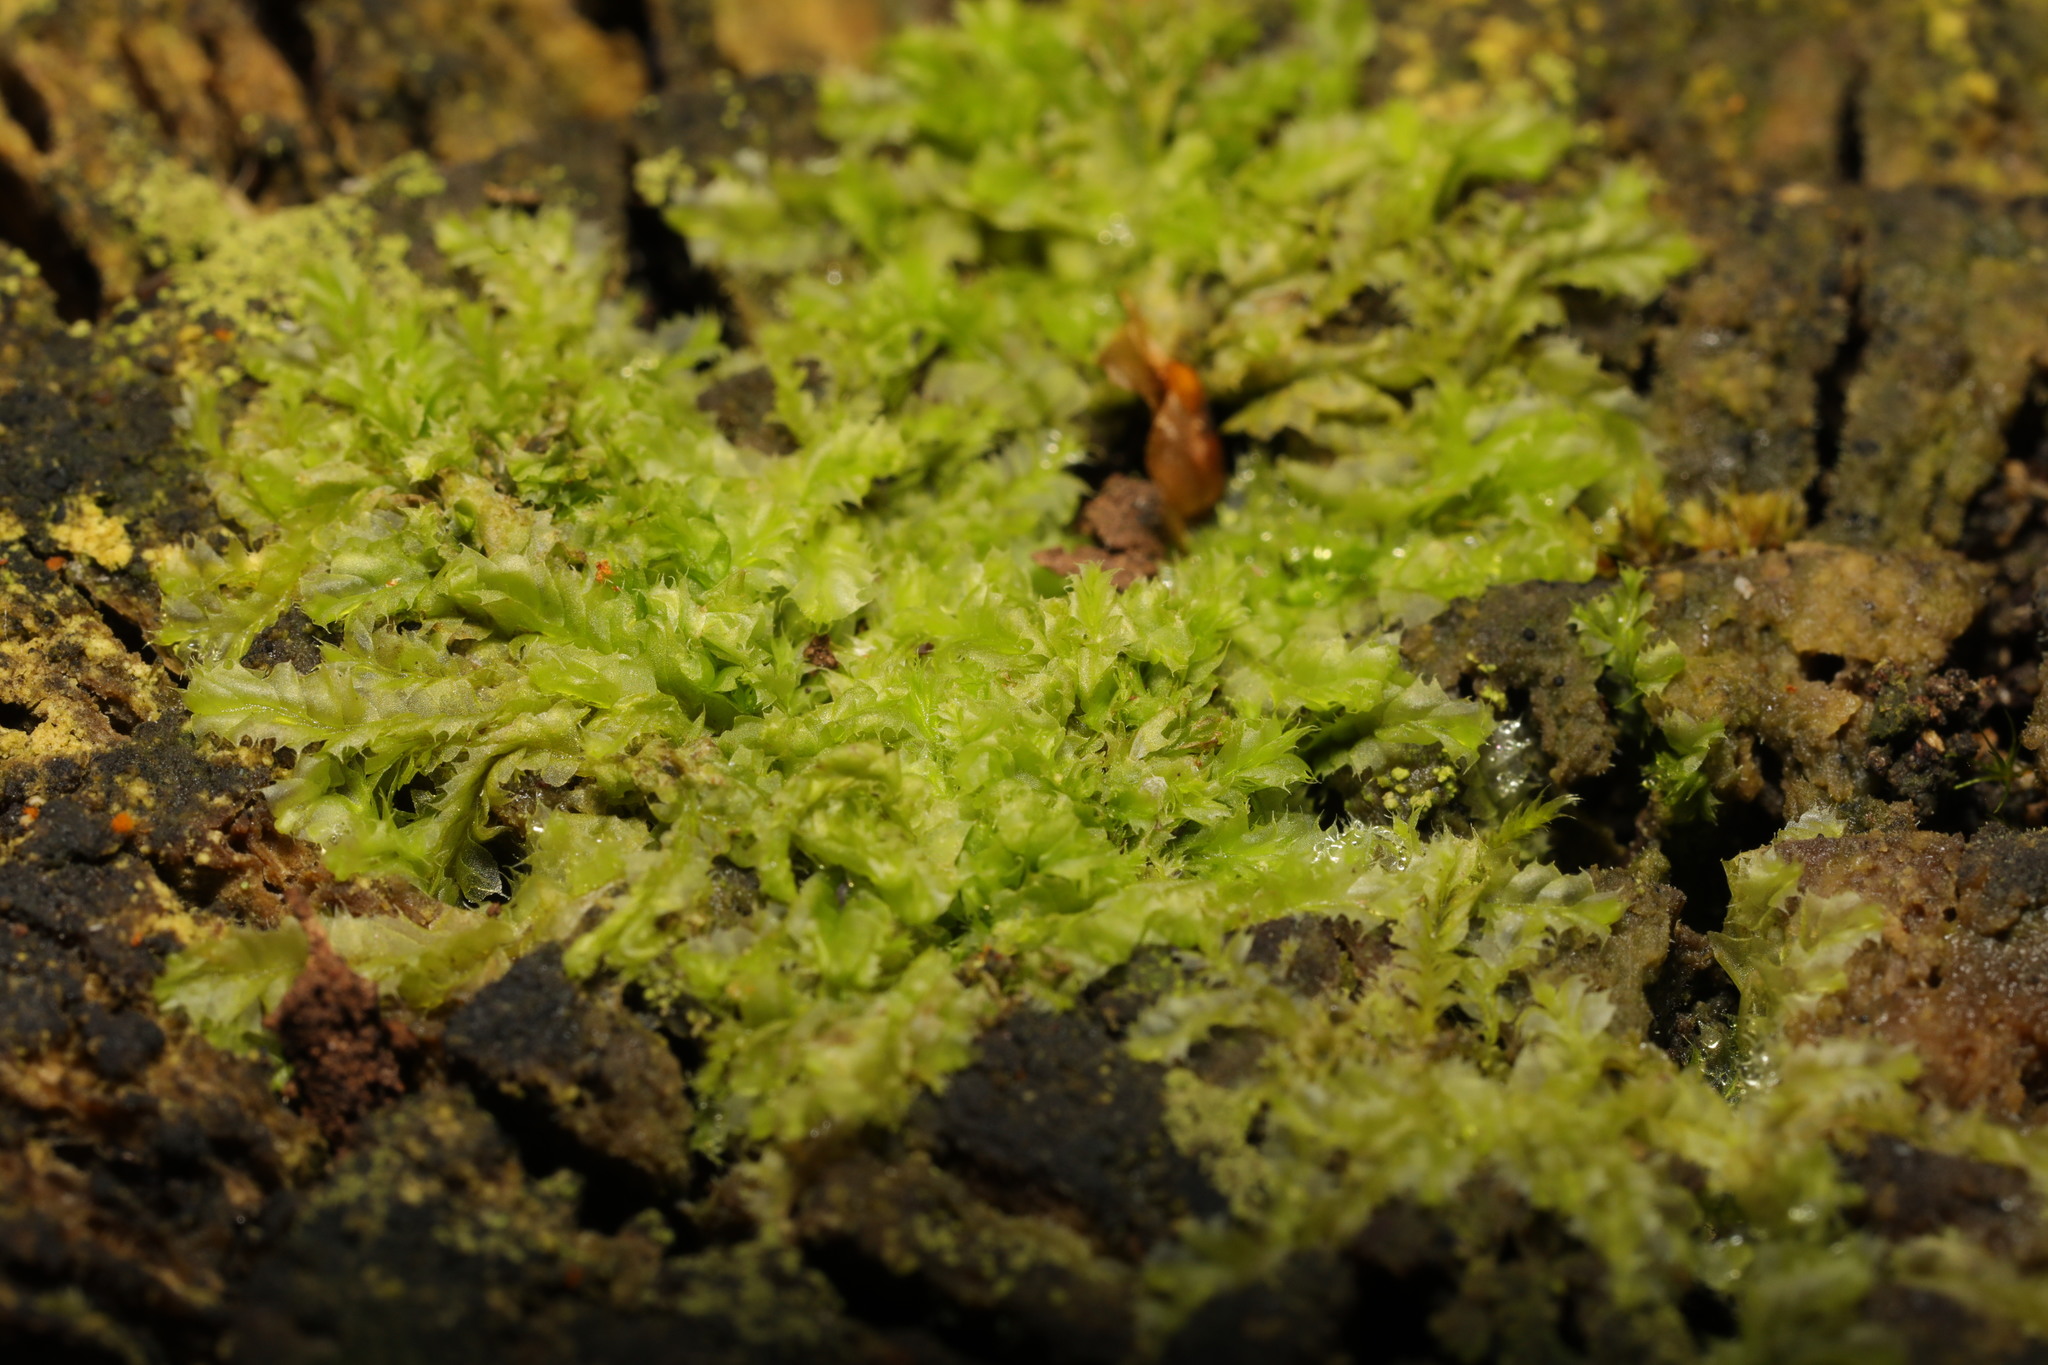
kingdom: Plantae
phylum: Marchantiophyta
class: Jungermanniopsida
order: Jungermanniales
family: Lophocoleaceae
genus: Lophocolea
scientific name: Lophocolea bidentata
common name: Bifid crestwort
